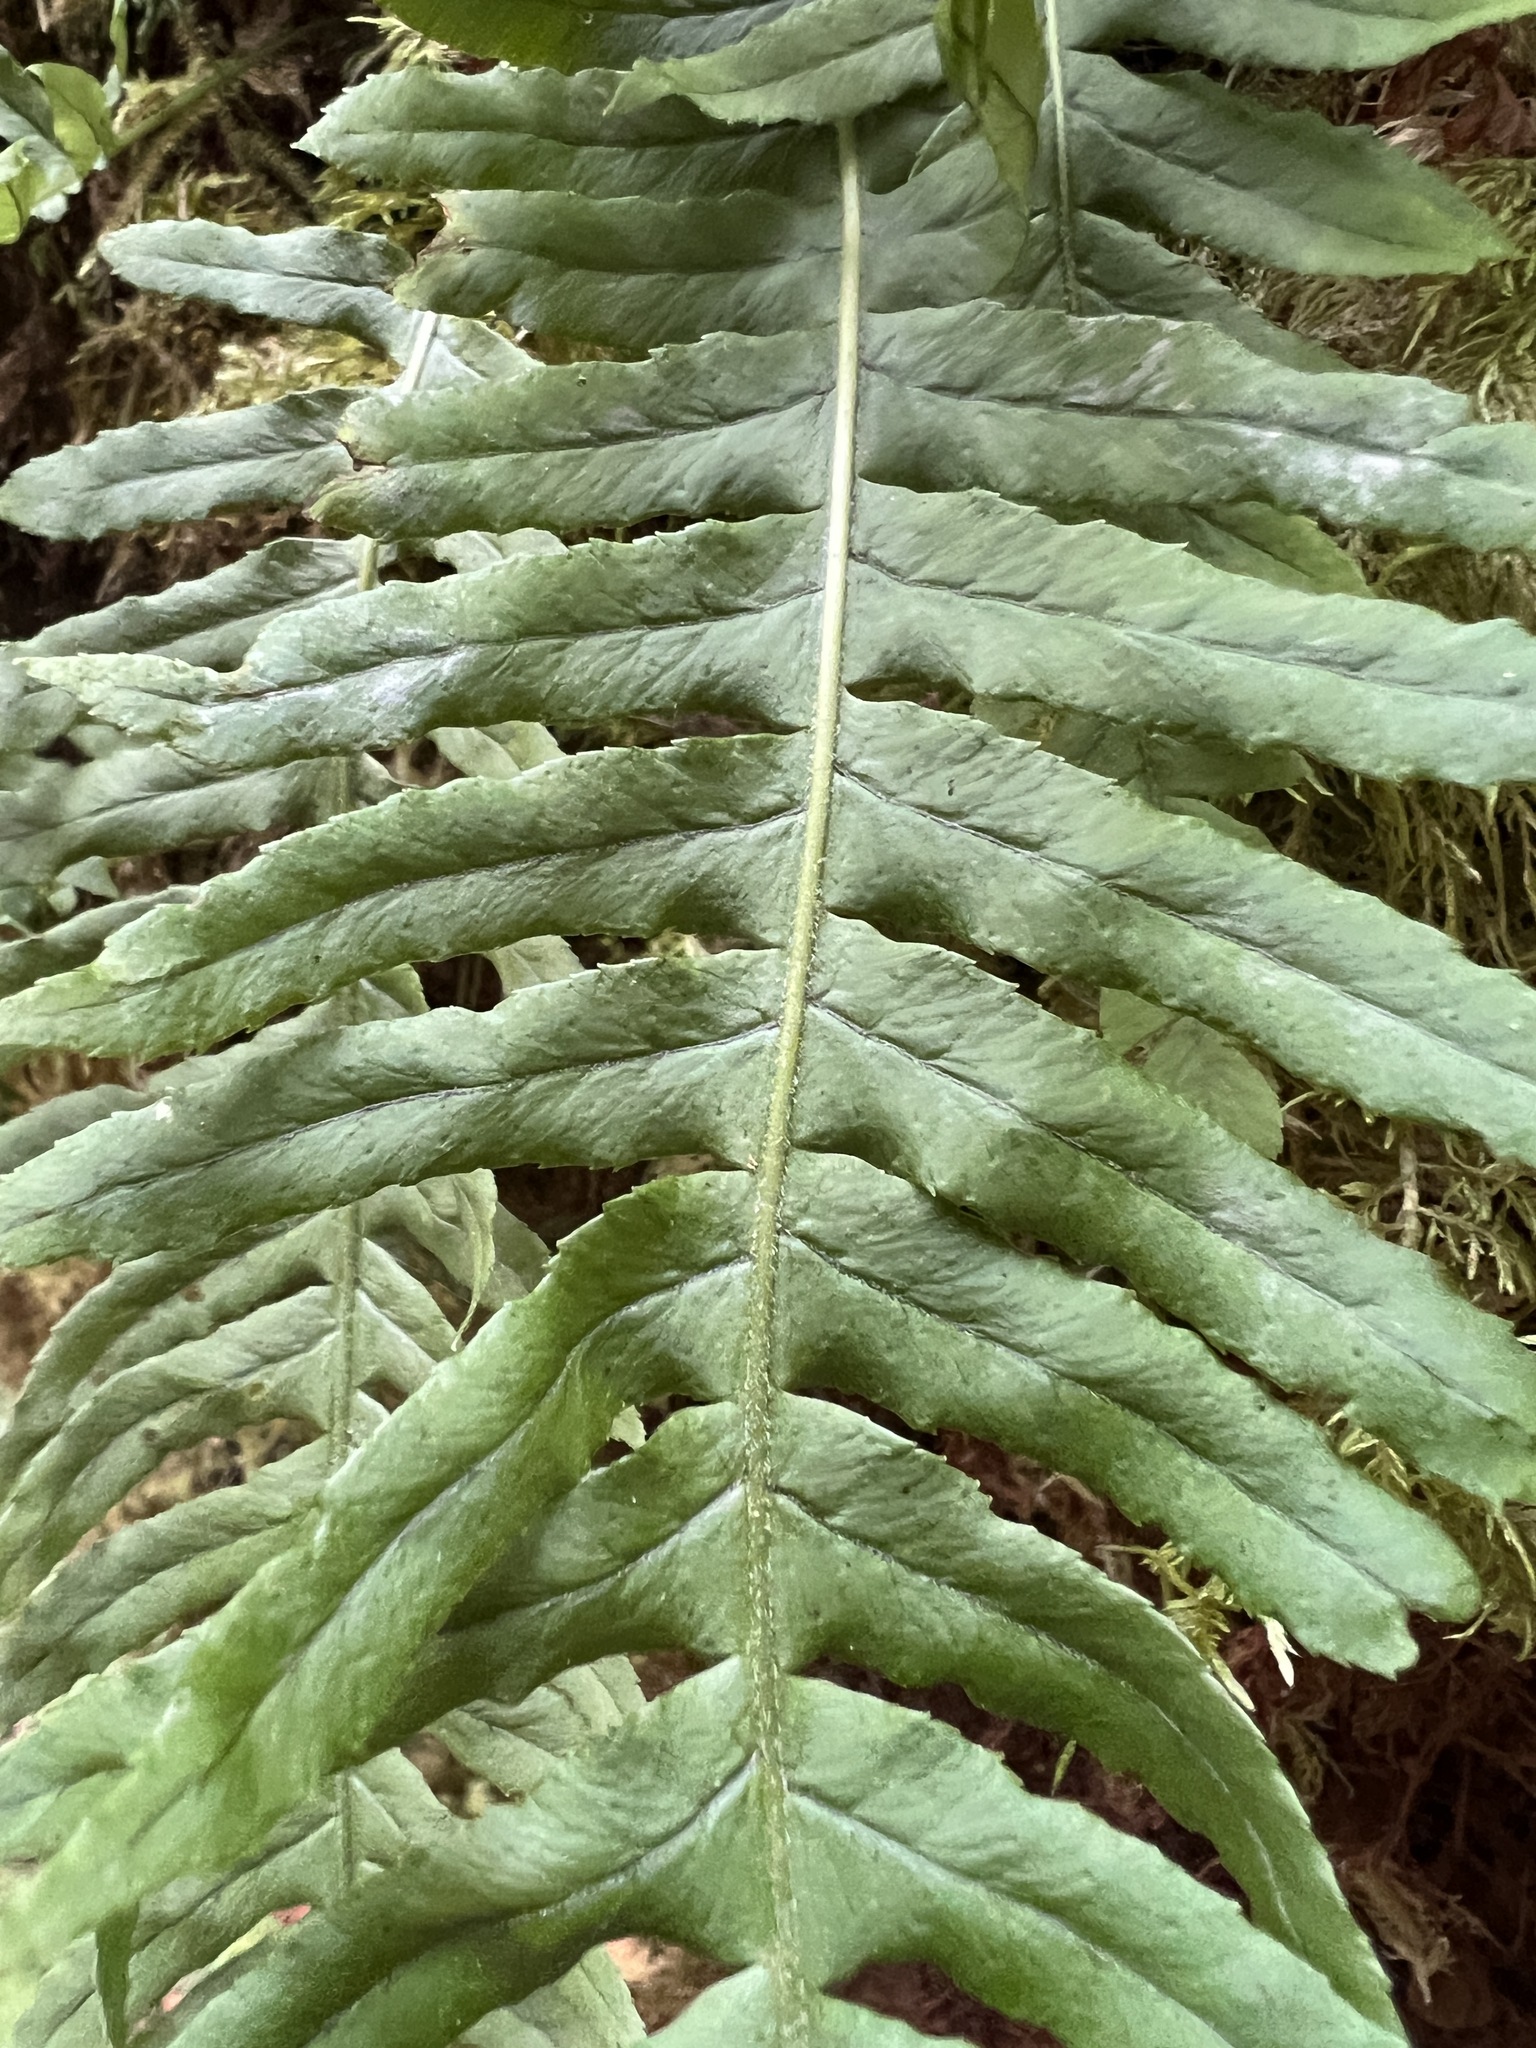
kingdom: Plantae
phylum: Tracheophyta
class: Polypodiopsida
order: Polypodiales
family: Polypodiaceae
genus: Polypodium
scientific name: Polypodium glycyrrhiza
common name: Licorice fern
